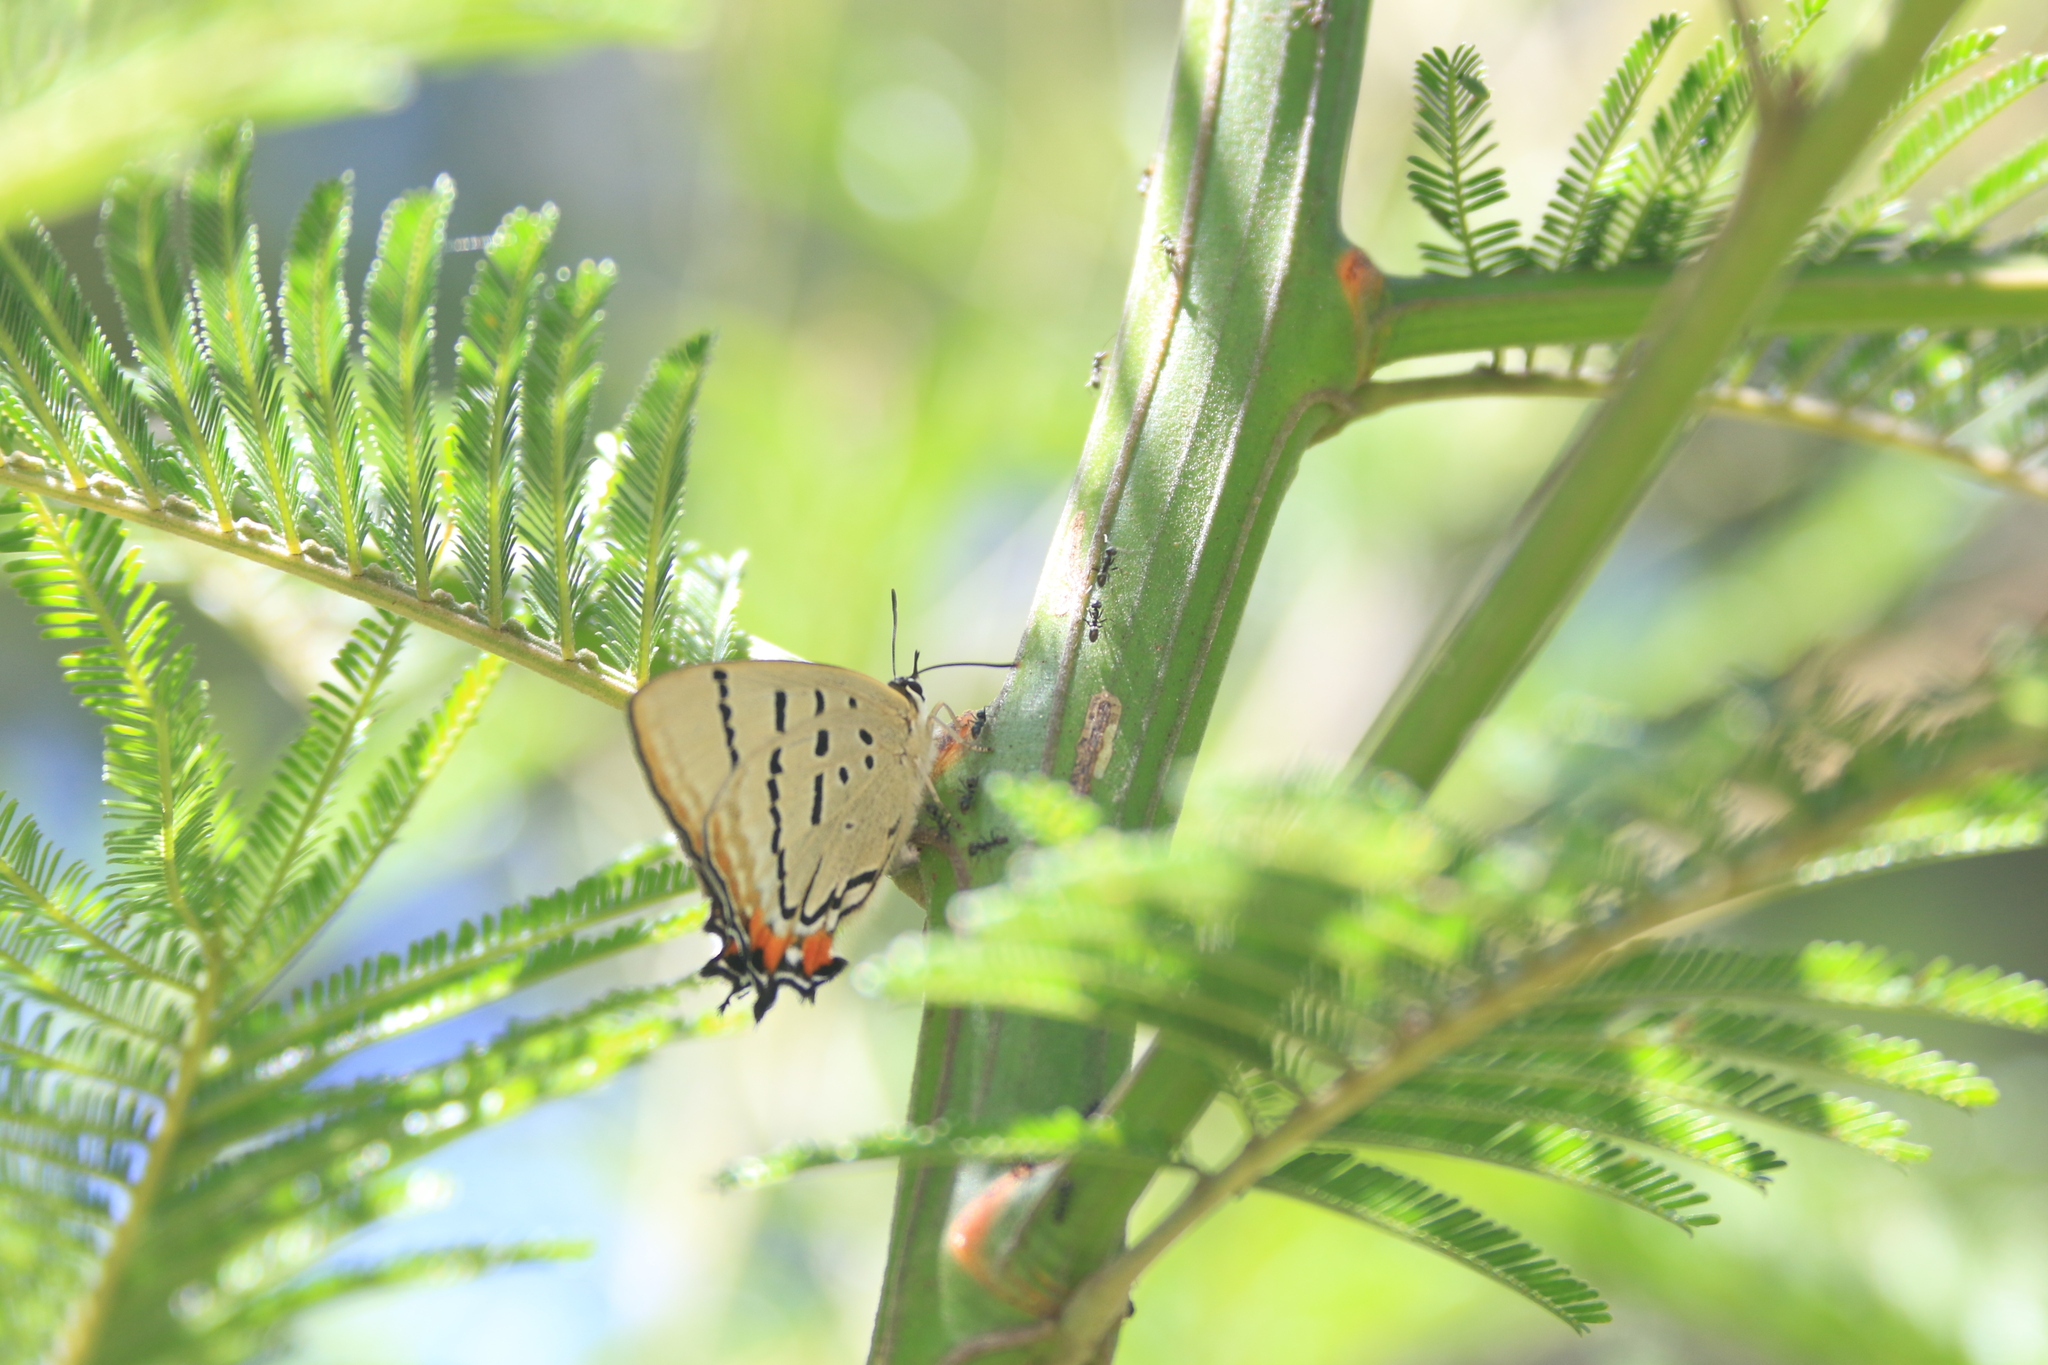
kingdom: Animalia
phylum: Arthropoda
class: Insecta
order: Lepidoptera
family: Lycaenidae
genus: Jalmenus
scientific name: Jalmenus evagoras
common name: Common imperial blue
